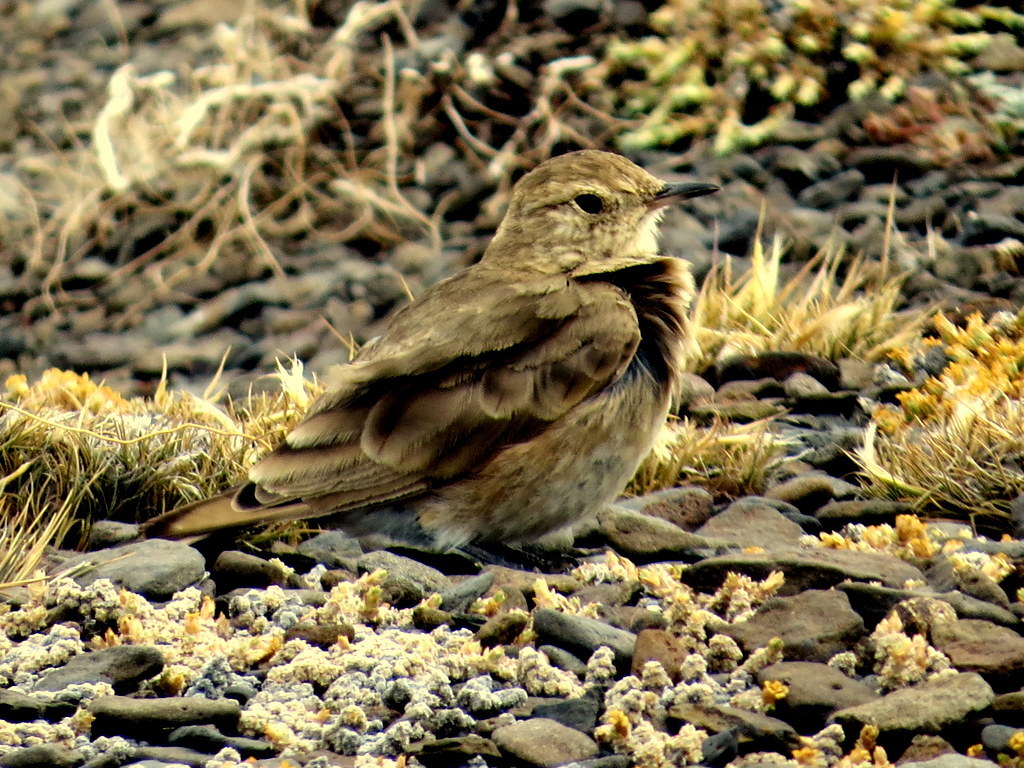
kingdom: Animalia
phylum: Chordata
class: Aves
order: Passeriformes
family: Furnariidae
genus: Geositta
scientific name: Geositta antarctica
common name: Short-billed miner
